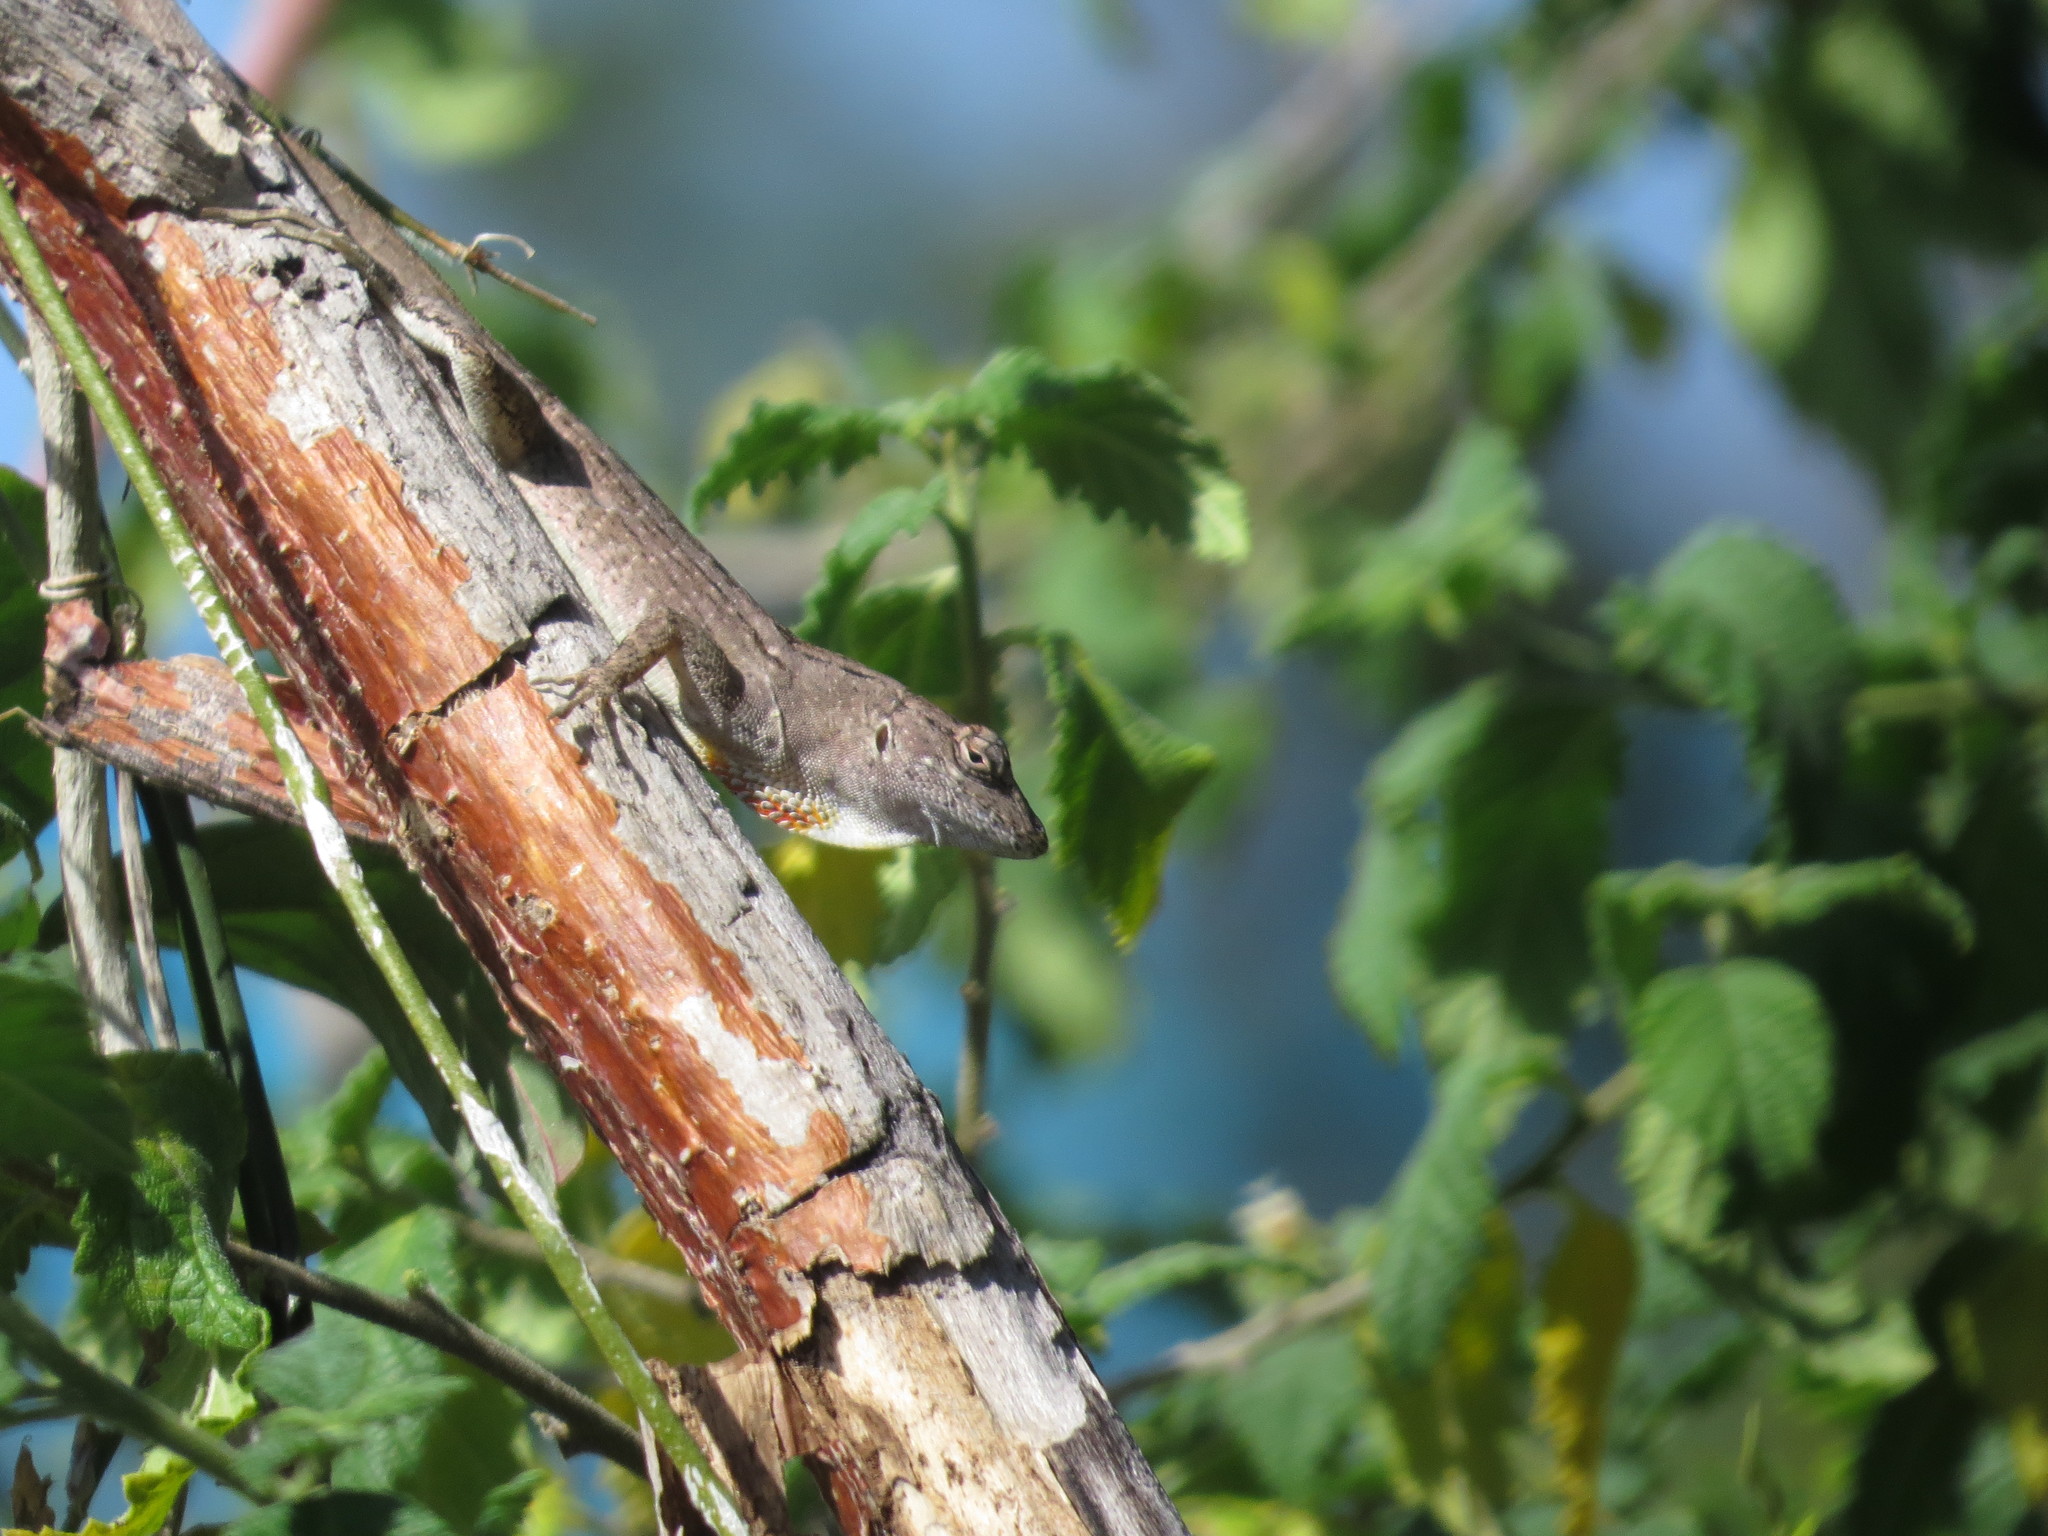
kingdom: Animalia
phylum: Chordata
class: Squamata
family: Dactyloidae
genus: Anolis
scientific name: Anolis sagrei
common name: Brown anole
